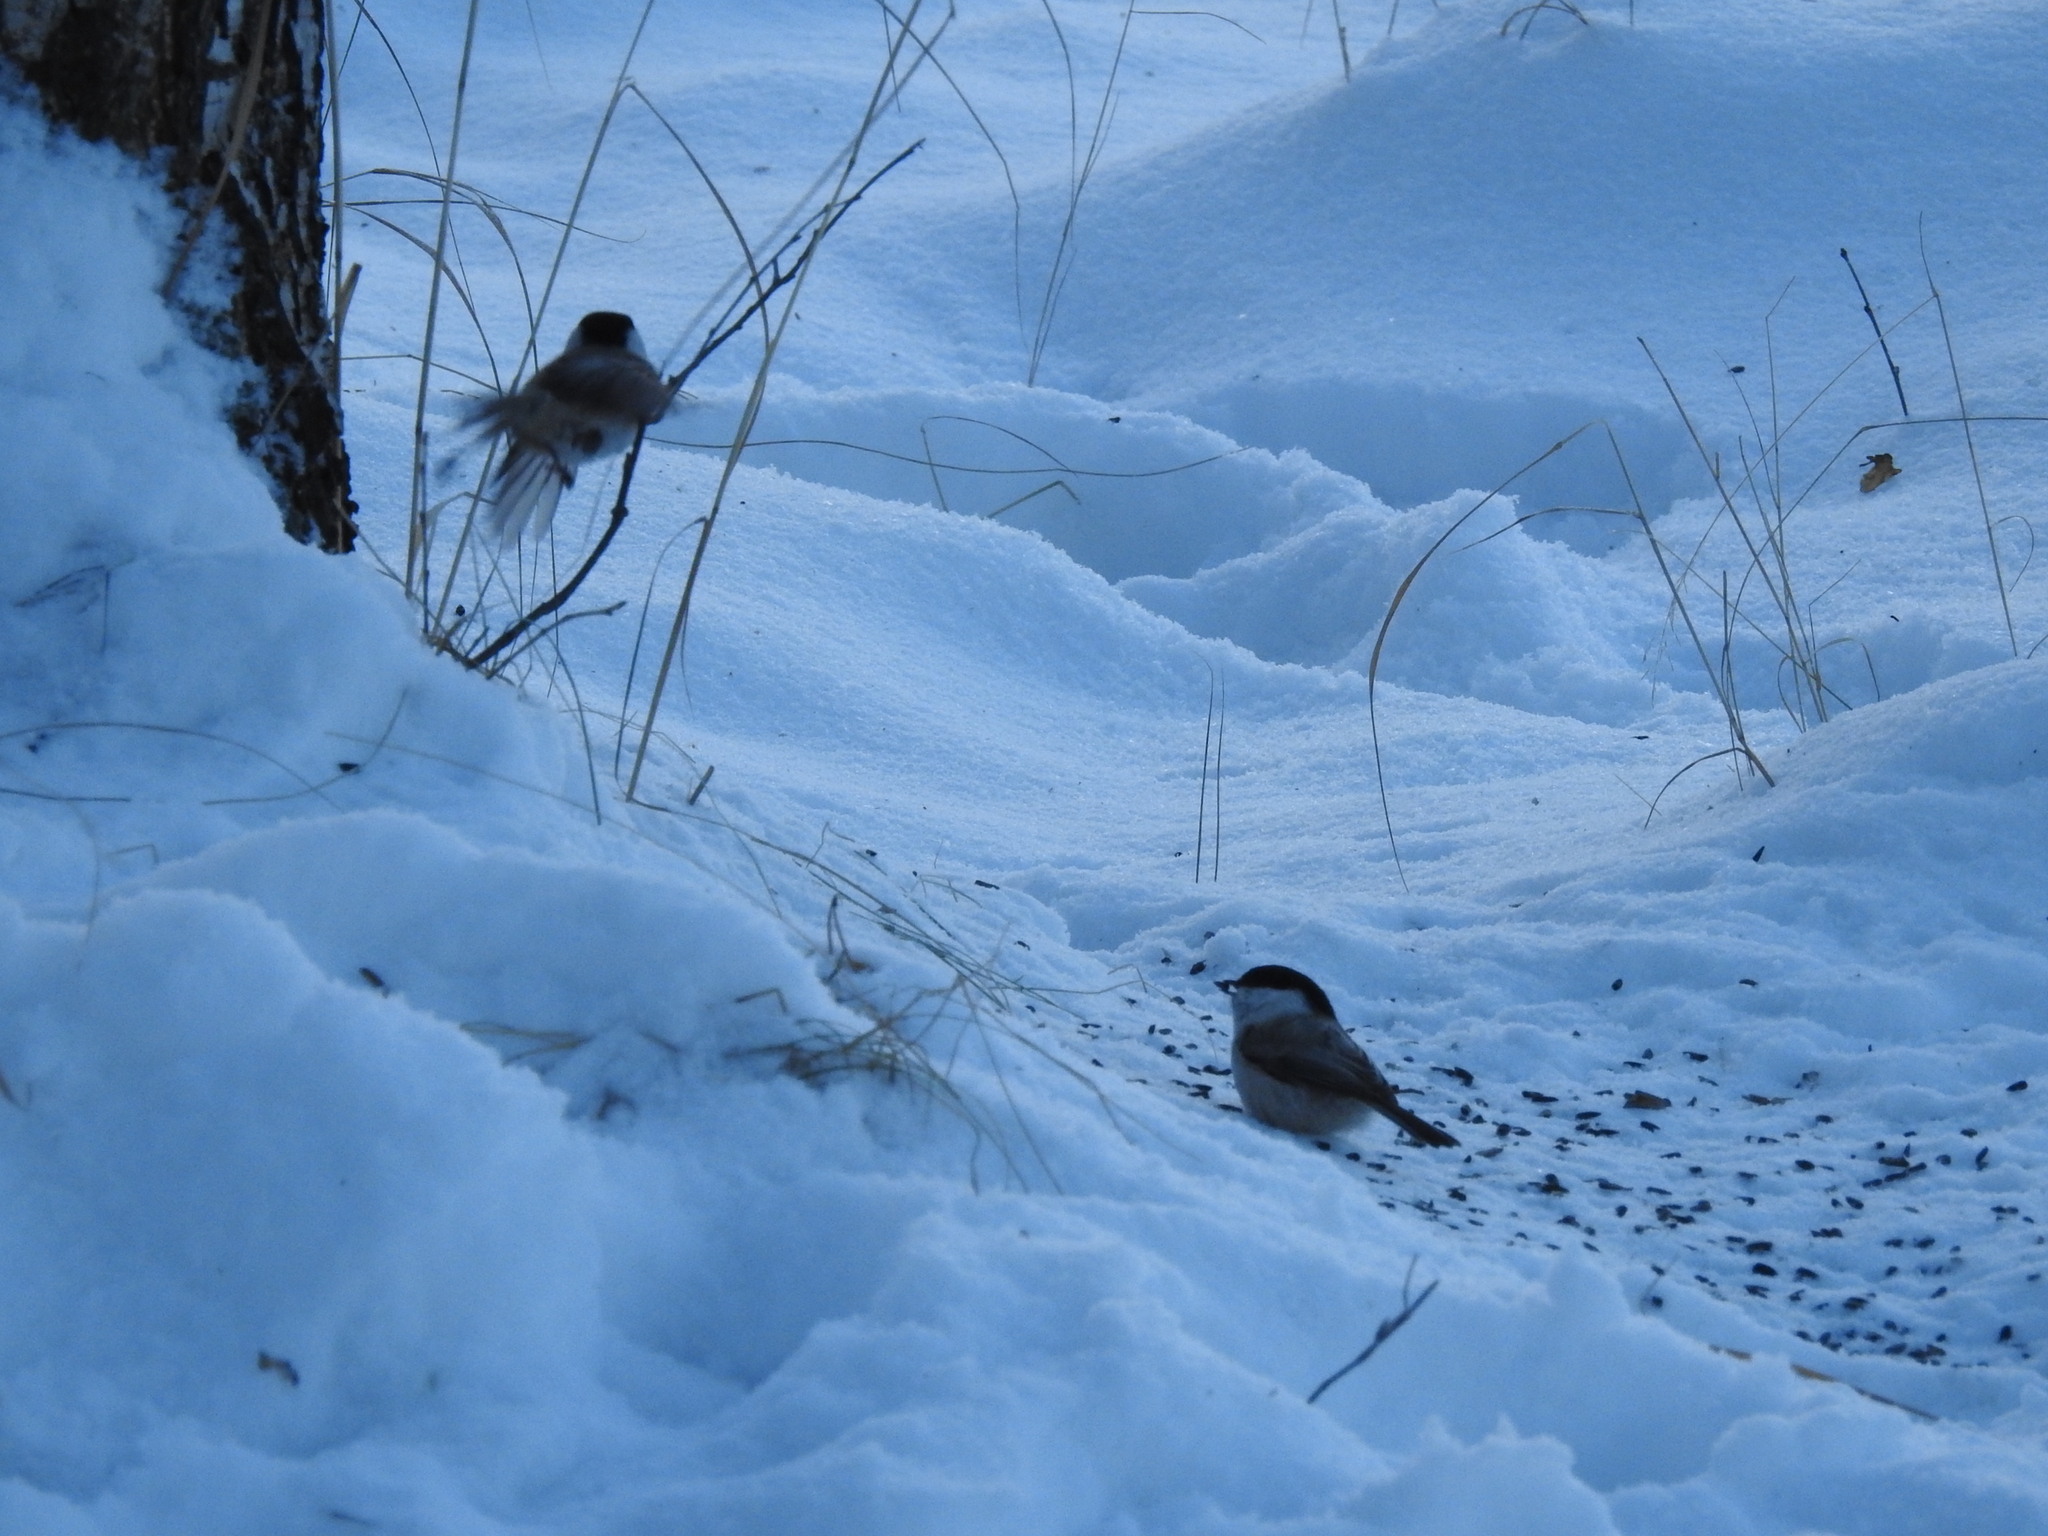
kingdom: Animalia
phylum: Chordata
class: Aves
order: Passeriformes
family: Paridae
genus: Poecile
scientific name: Poecile montanus
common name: Willow tit
